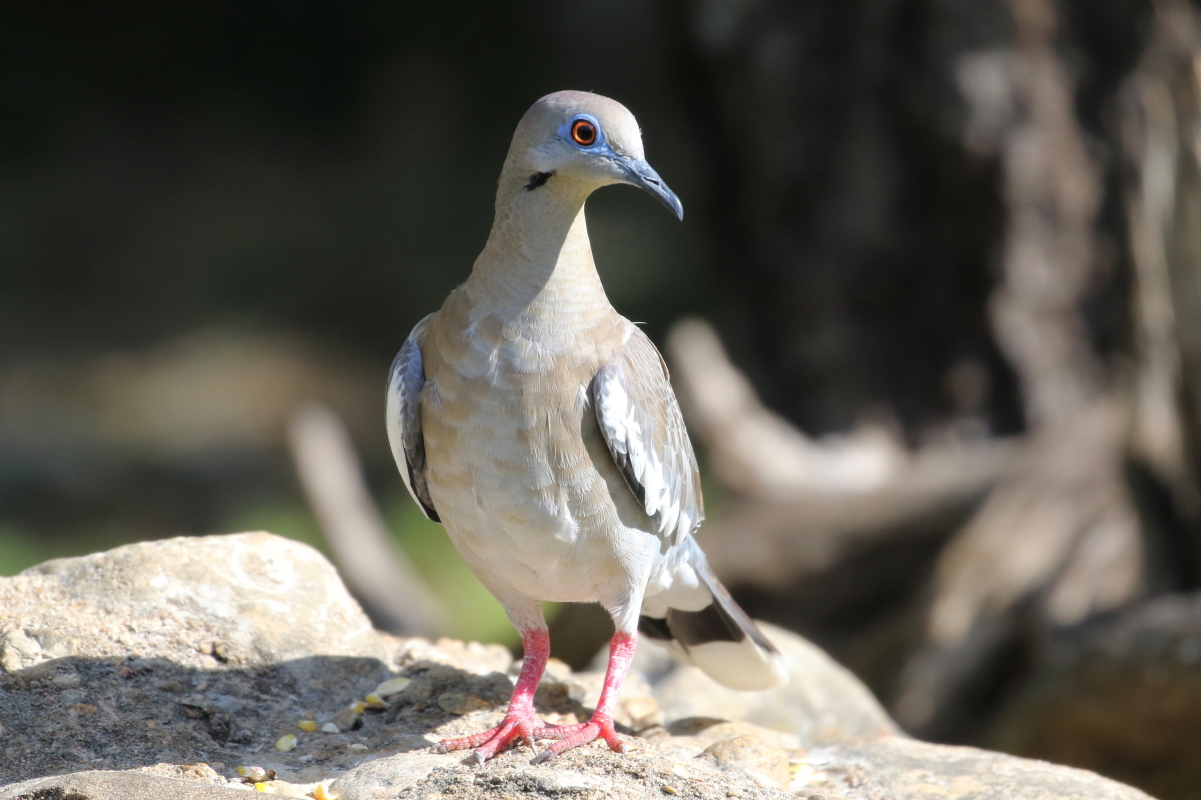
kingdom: Animalia
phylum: Chordata
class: Aves
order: Columbiformes
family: Columbidae
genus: Zenaida
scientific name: Zenaida asiatica
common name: White-winged dove
